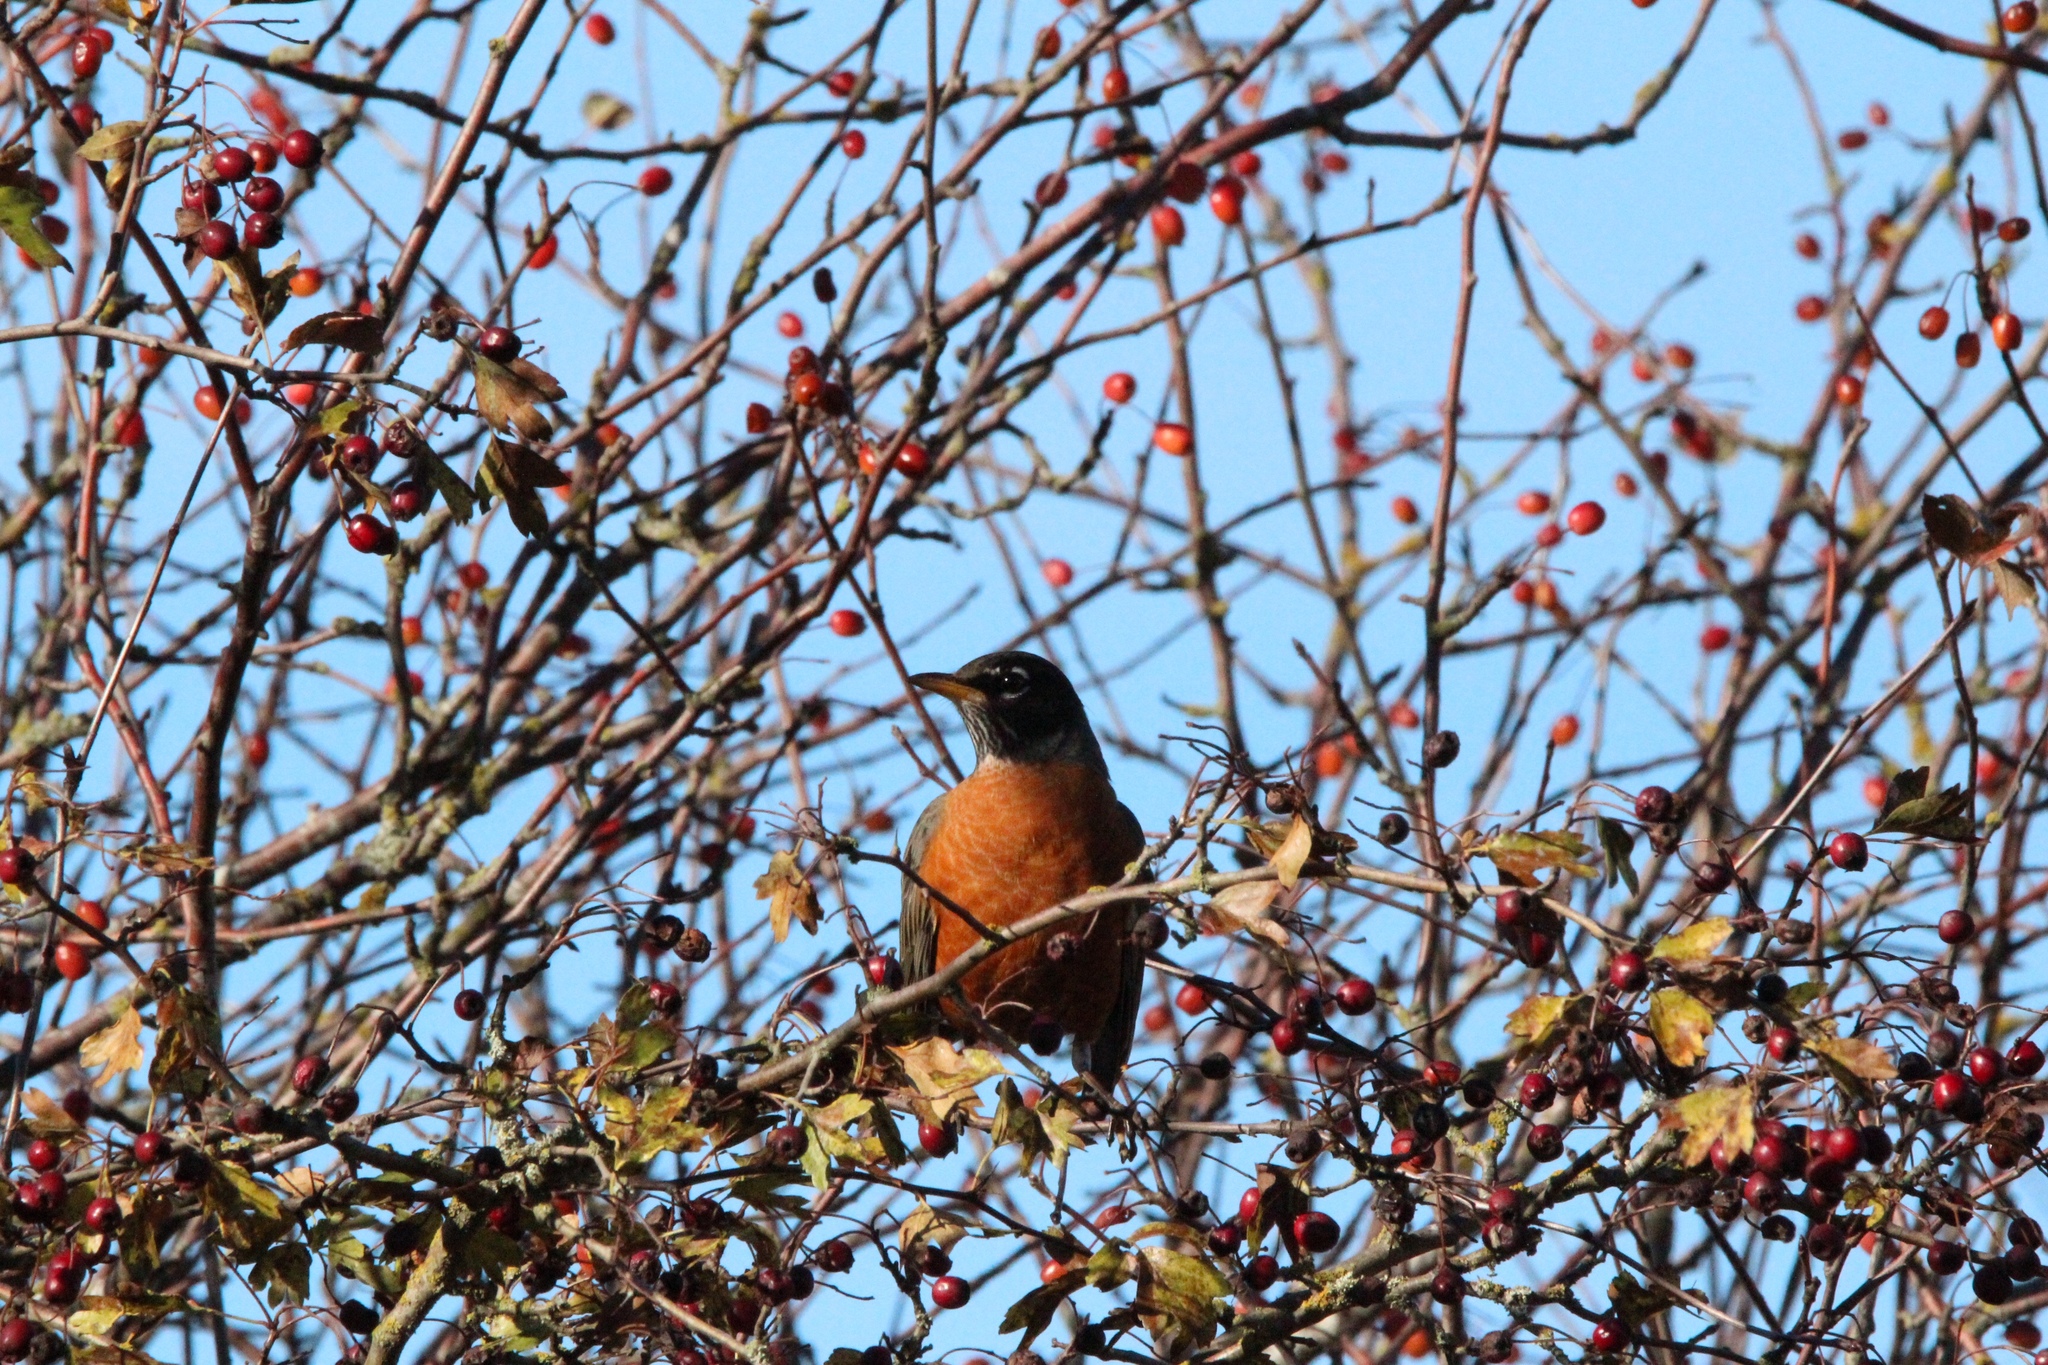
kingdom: Animalia
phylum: Chordata
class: Aves
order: Passeriformes
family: Turdidae
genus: Turdus
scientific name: Turdus migratorius
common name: American robin
